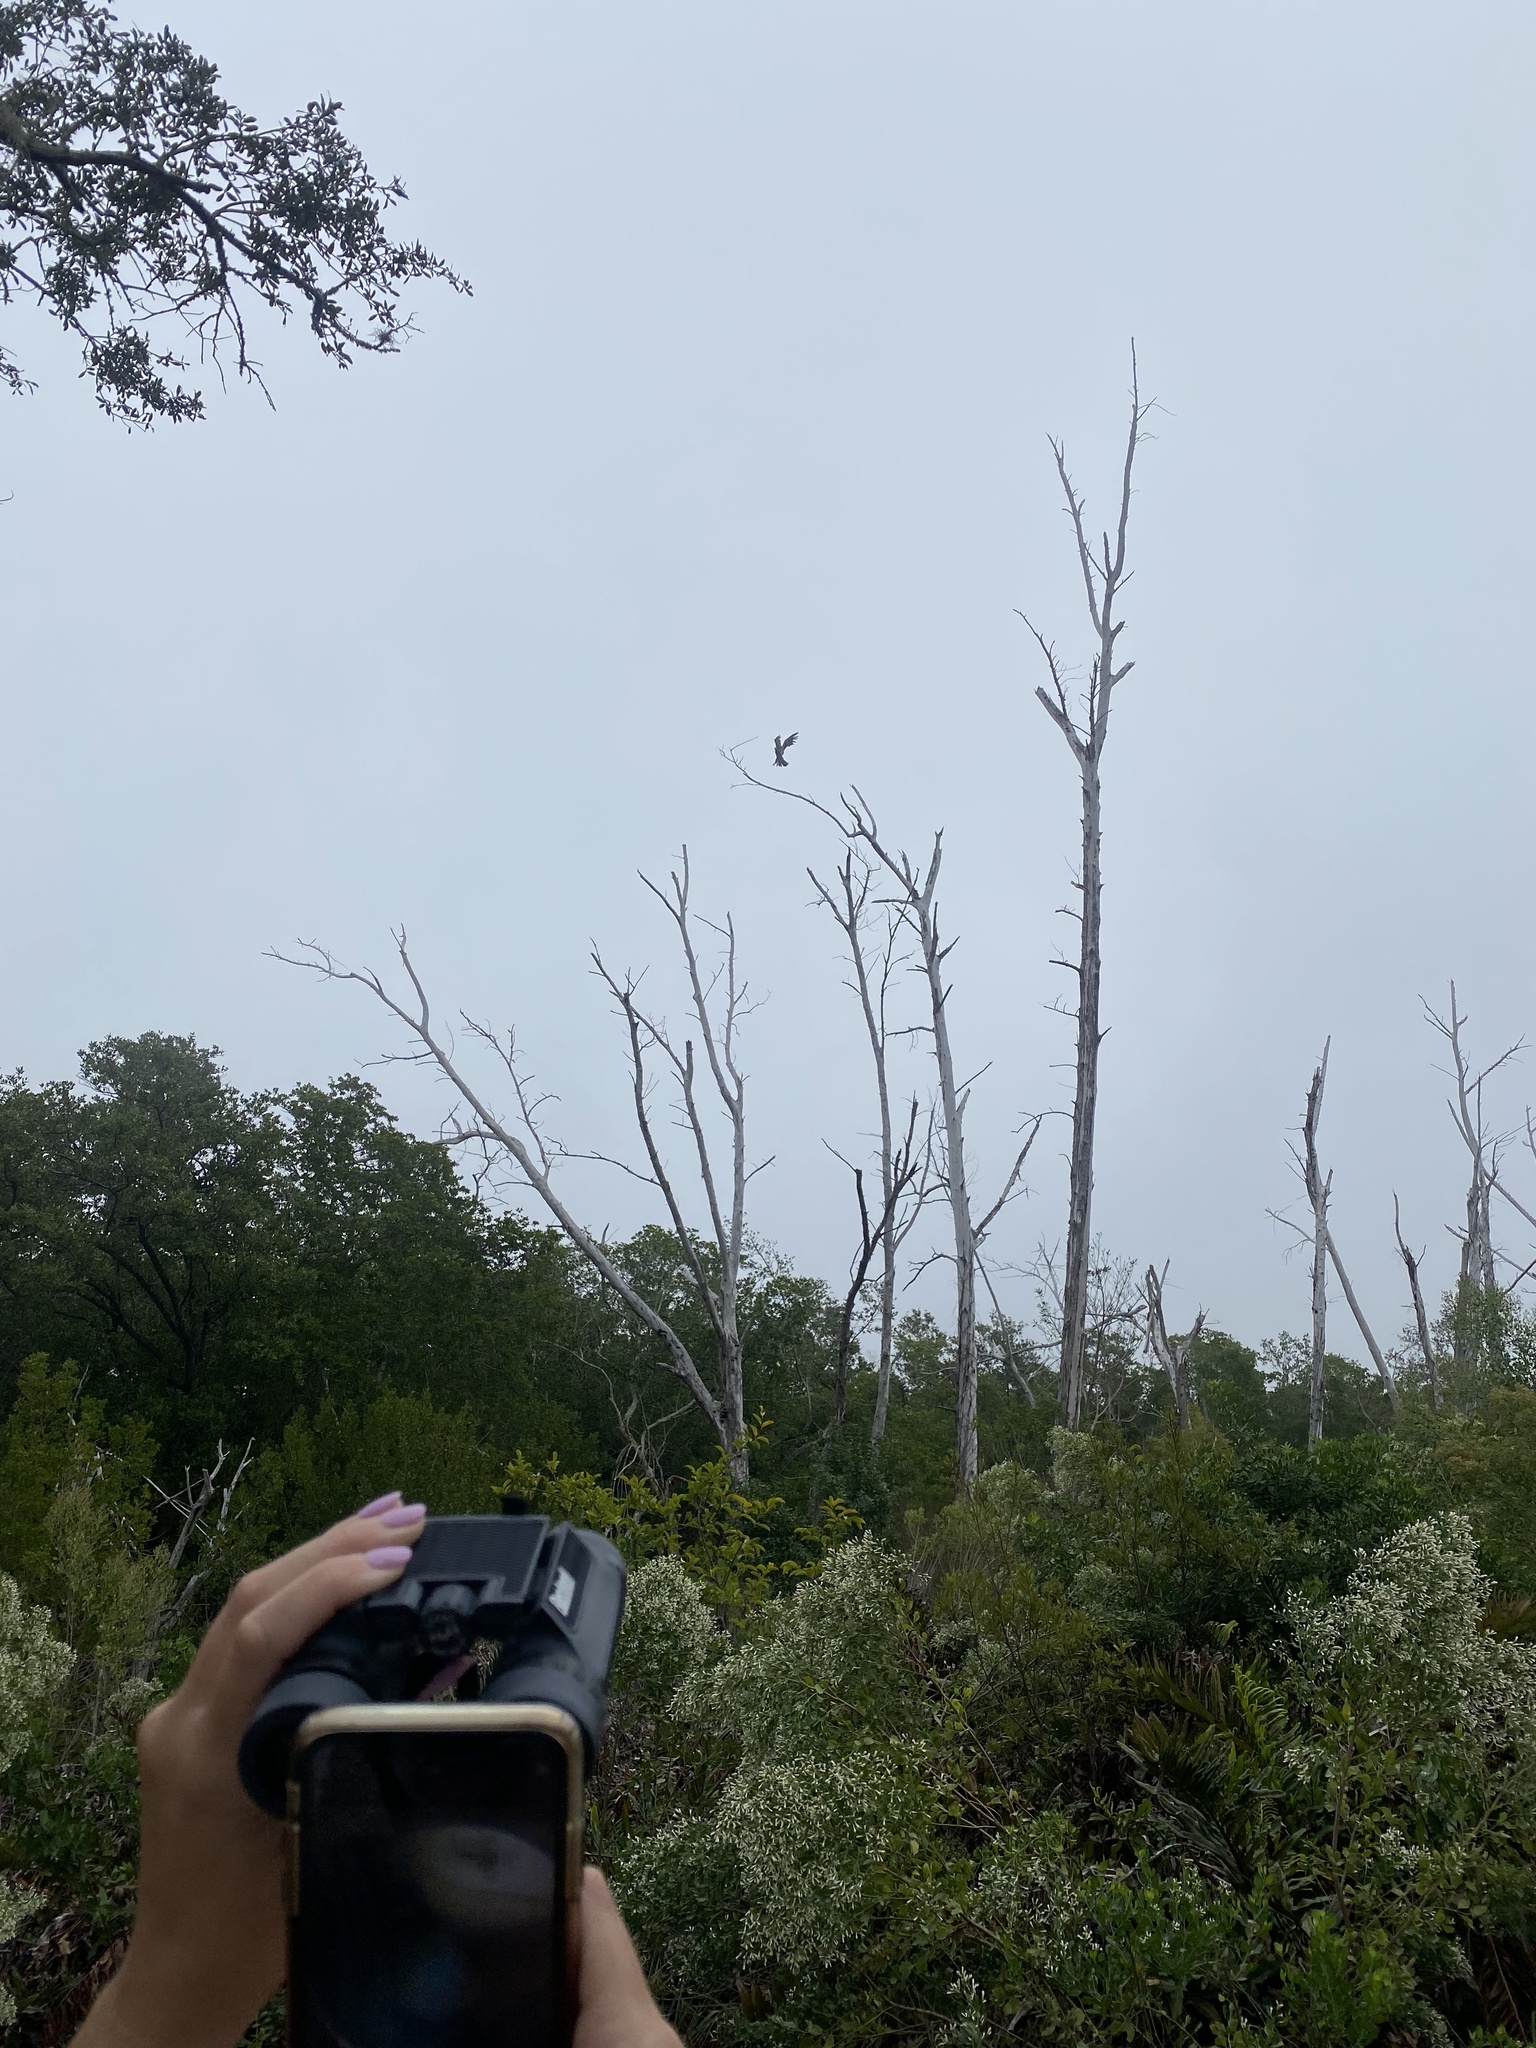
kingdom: Animalia
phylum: Chordata
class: Aves
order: Accipitriformes
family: Accipitridae
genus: Haliaeetus
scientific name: Haliaeetus leucocephalus
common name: Bald eagle
